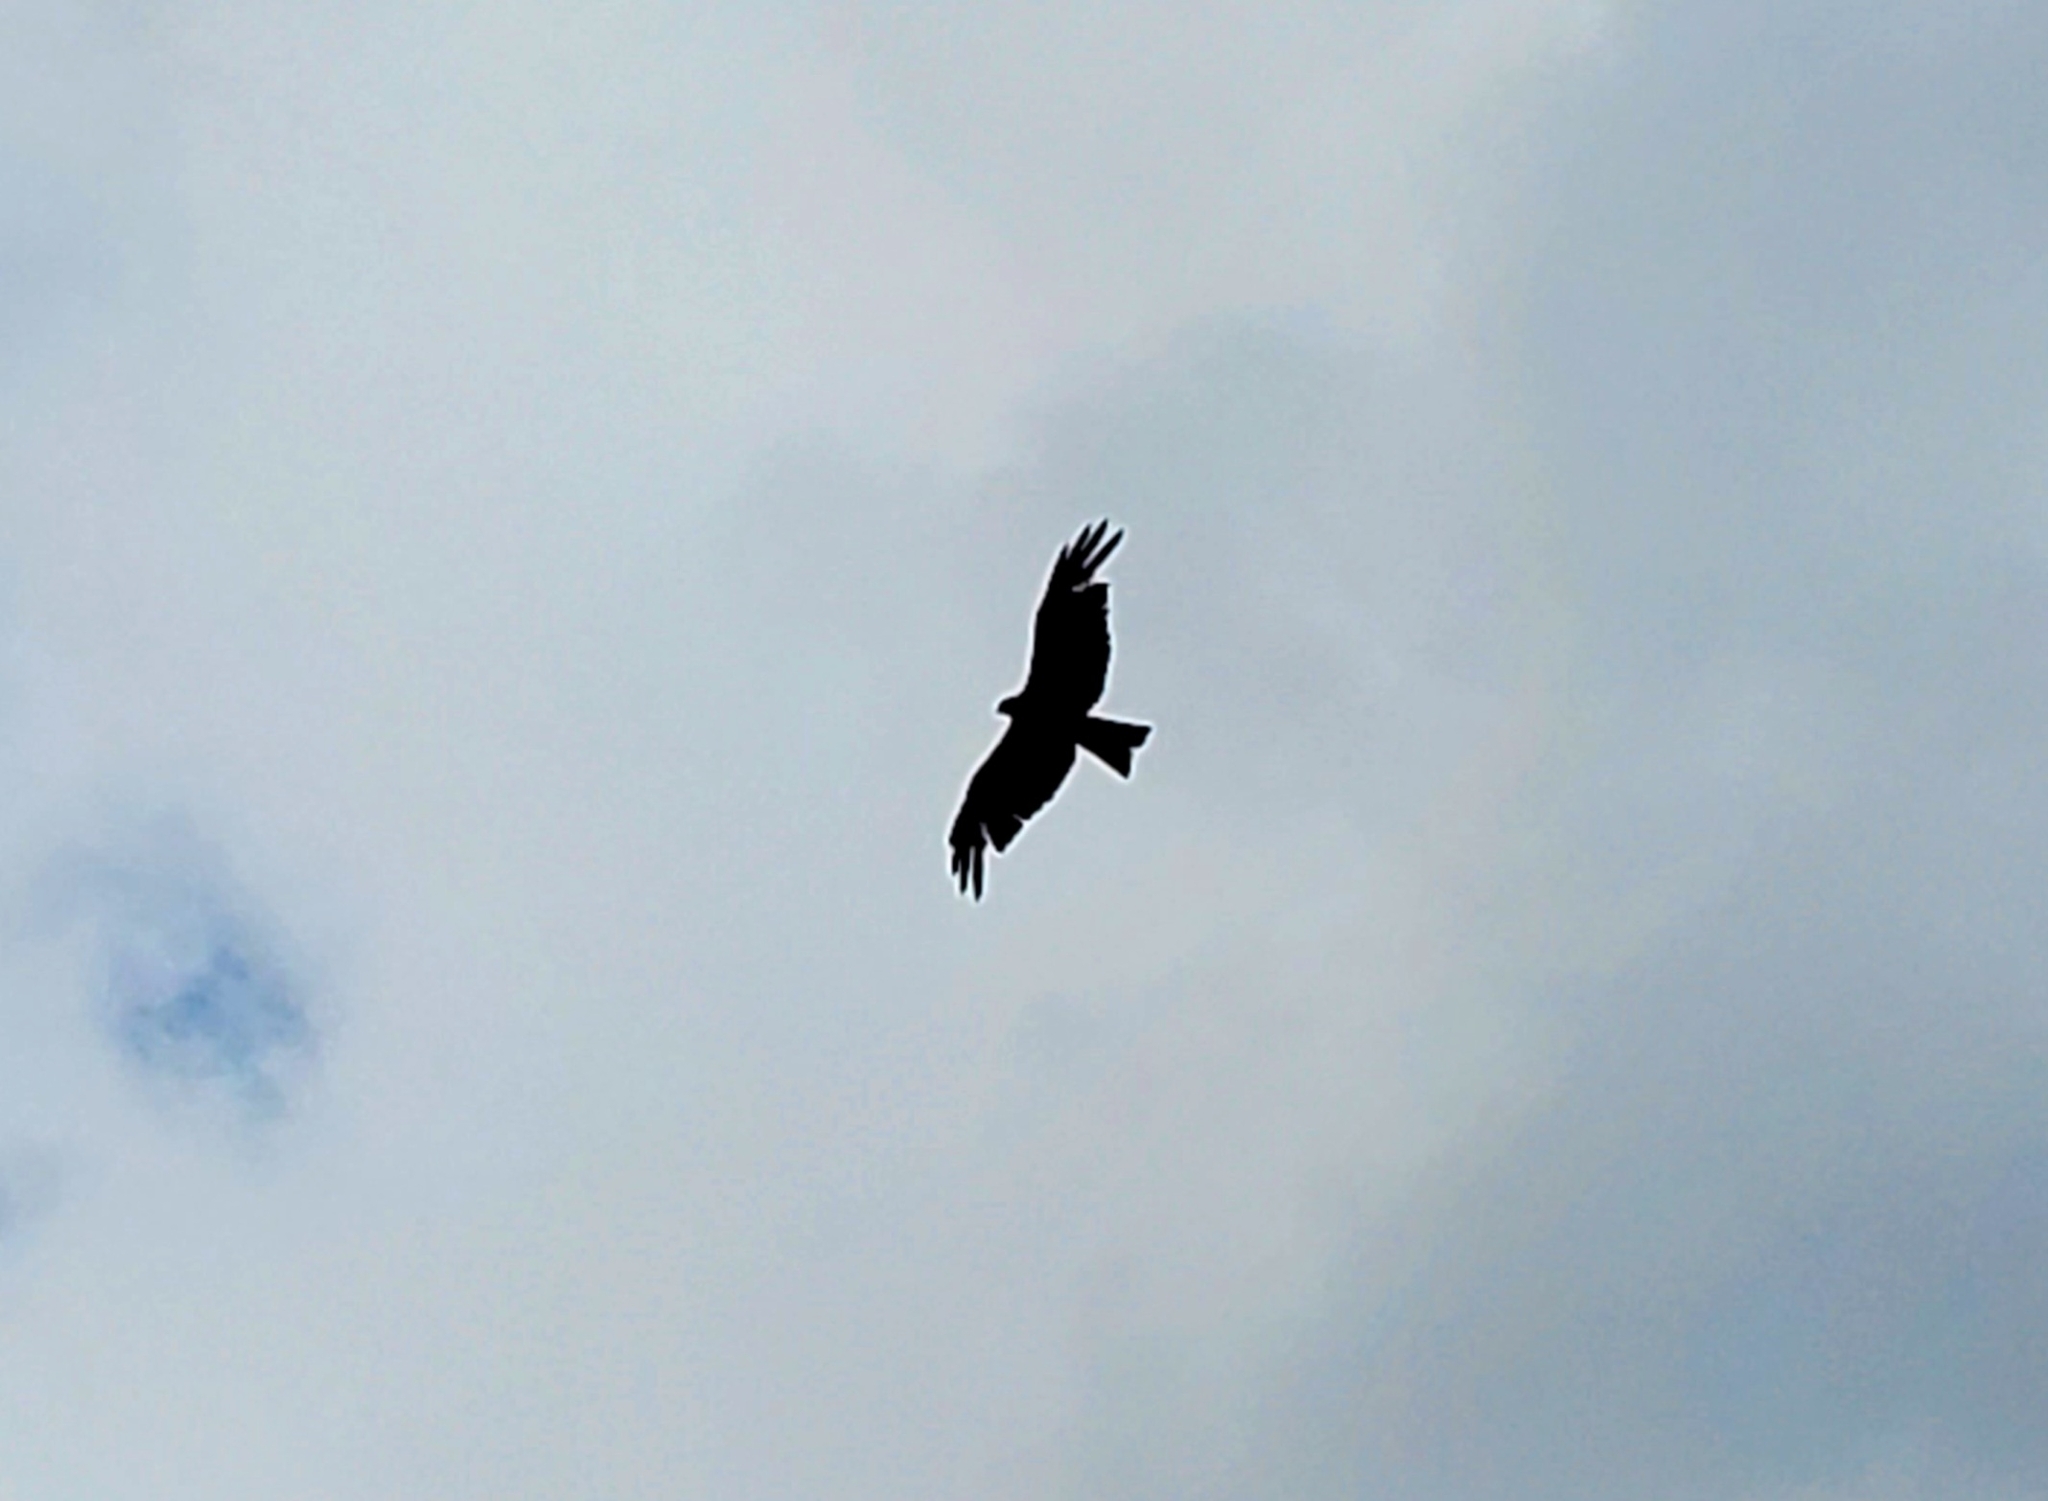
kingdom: Animalia
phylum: Chordata
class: Aves
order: Accipitriformes
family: Accipitridae
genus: Milvus
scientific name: Milvus migrans
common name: Black kite
